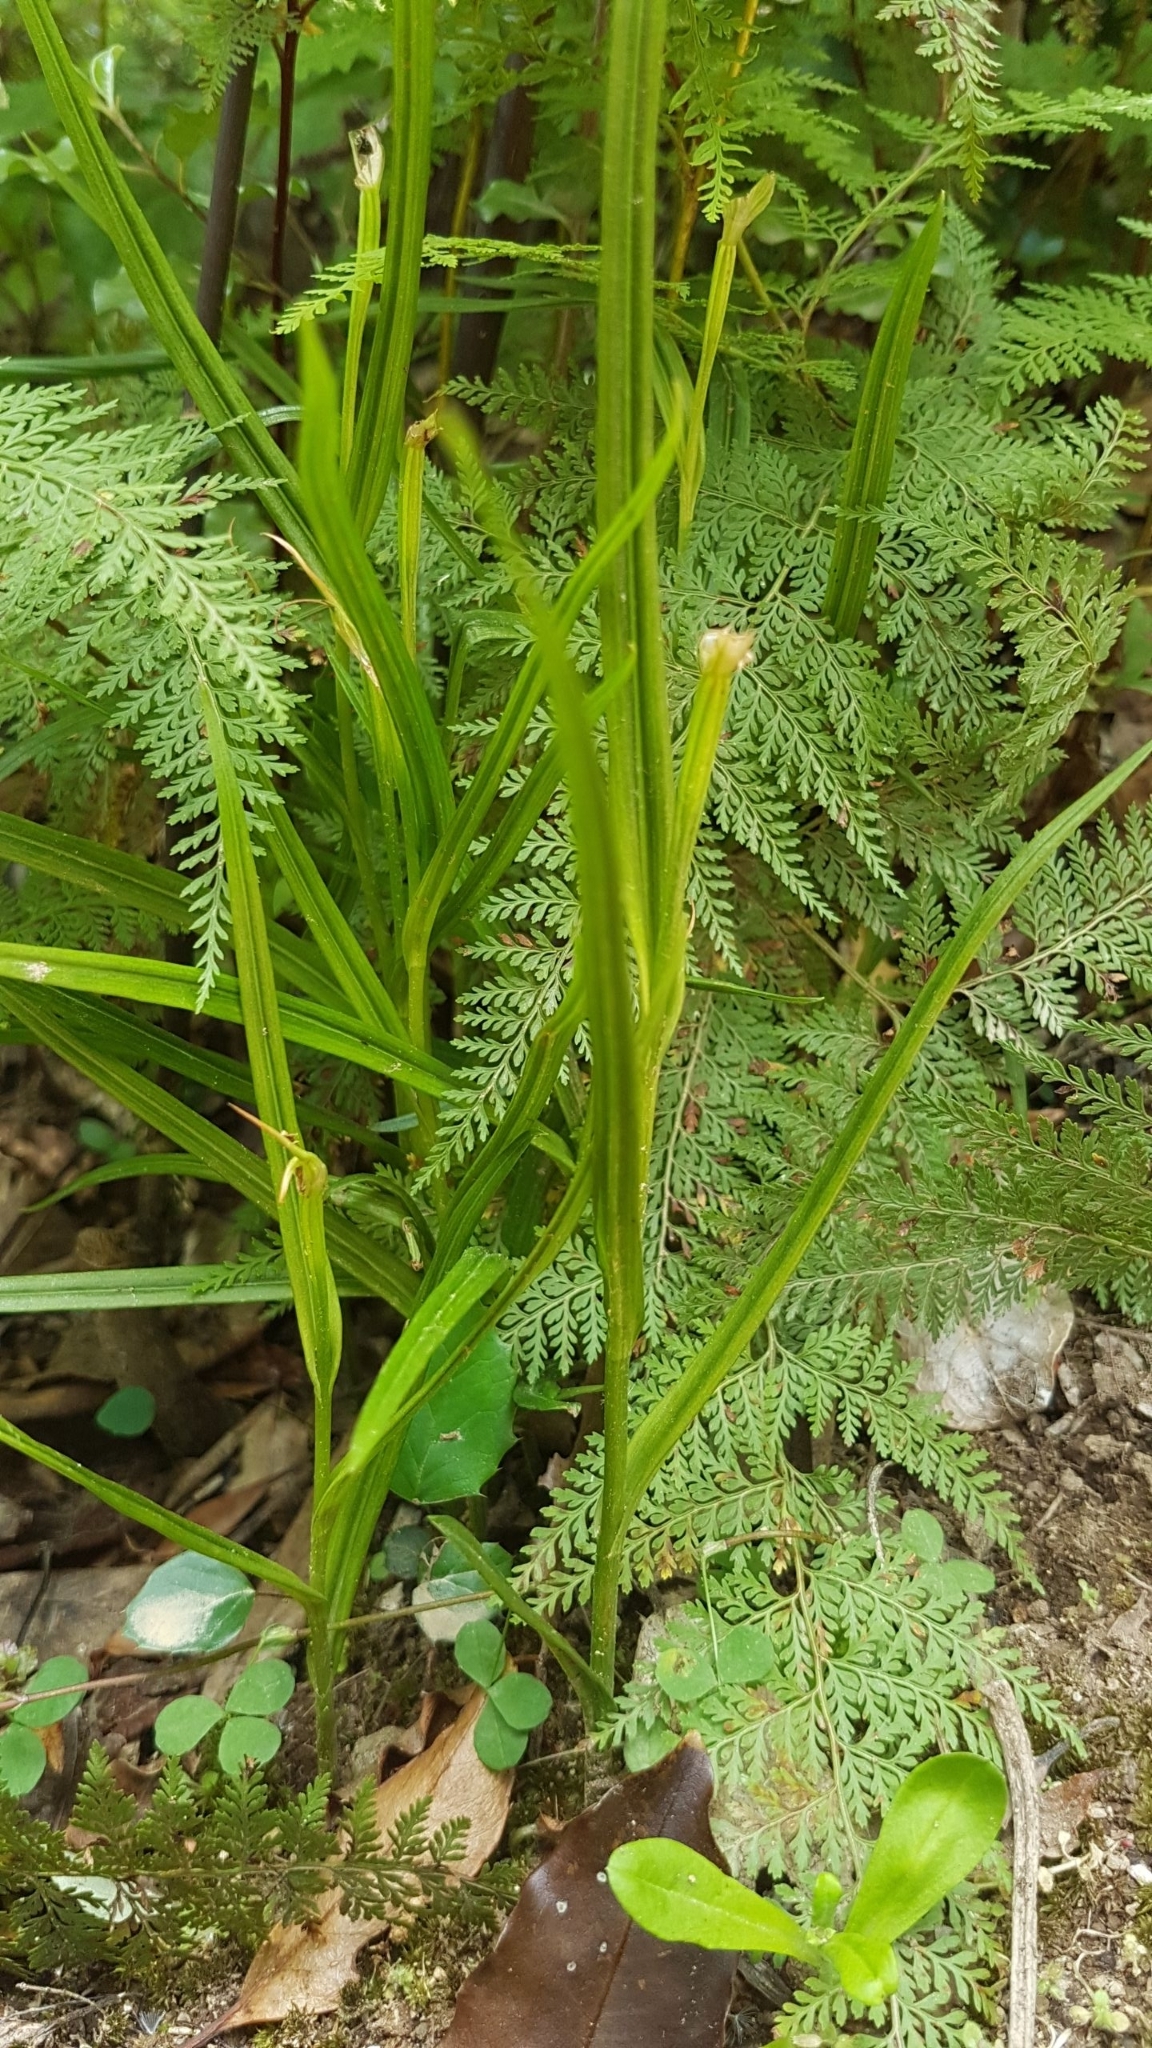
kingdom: Plantae
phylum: Tracheophyta
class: Liliopsida
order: Asparagales
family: Orchidaceae
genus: Pterostylis
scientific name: Pterostylis graminea
